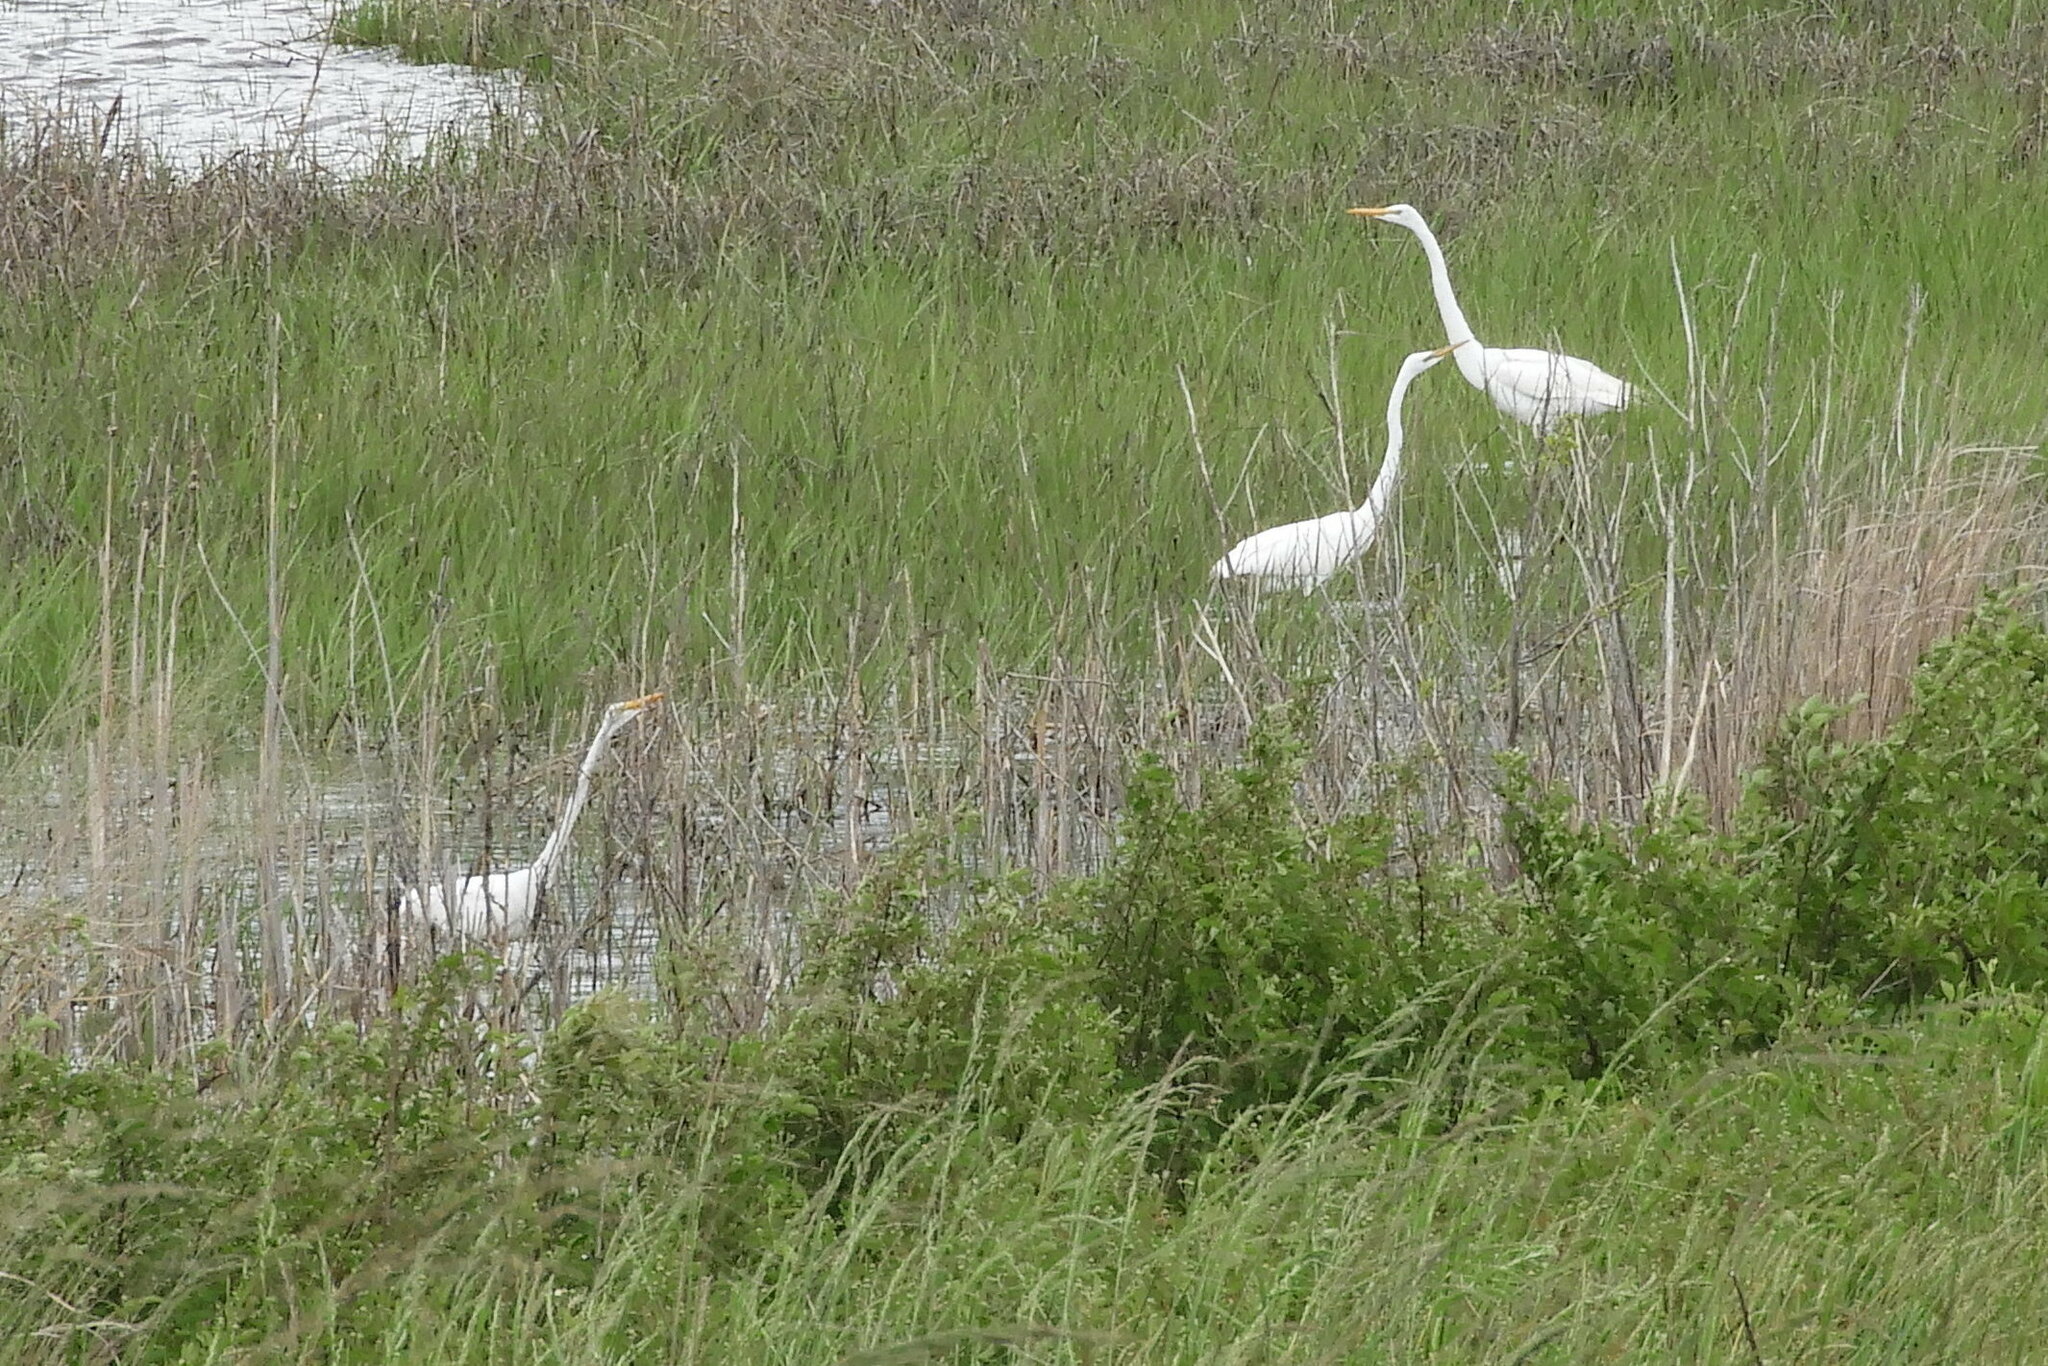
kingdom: Animalia
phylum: Chordata
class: Aves
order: Pelecaniformes
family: Ardeidae
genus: Ardea
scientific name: Ardea alba
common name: Great egret
